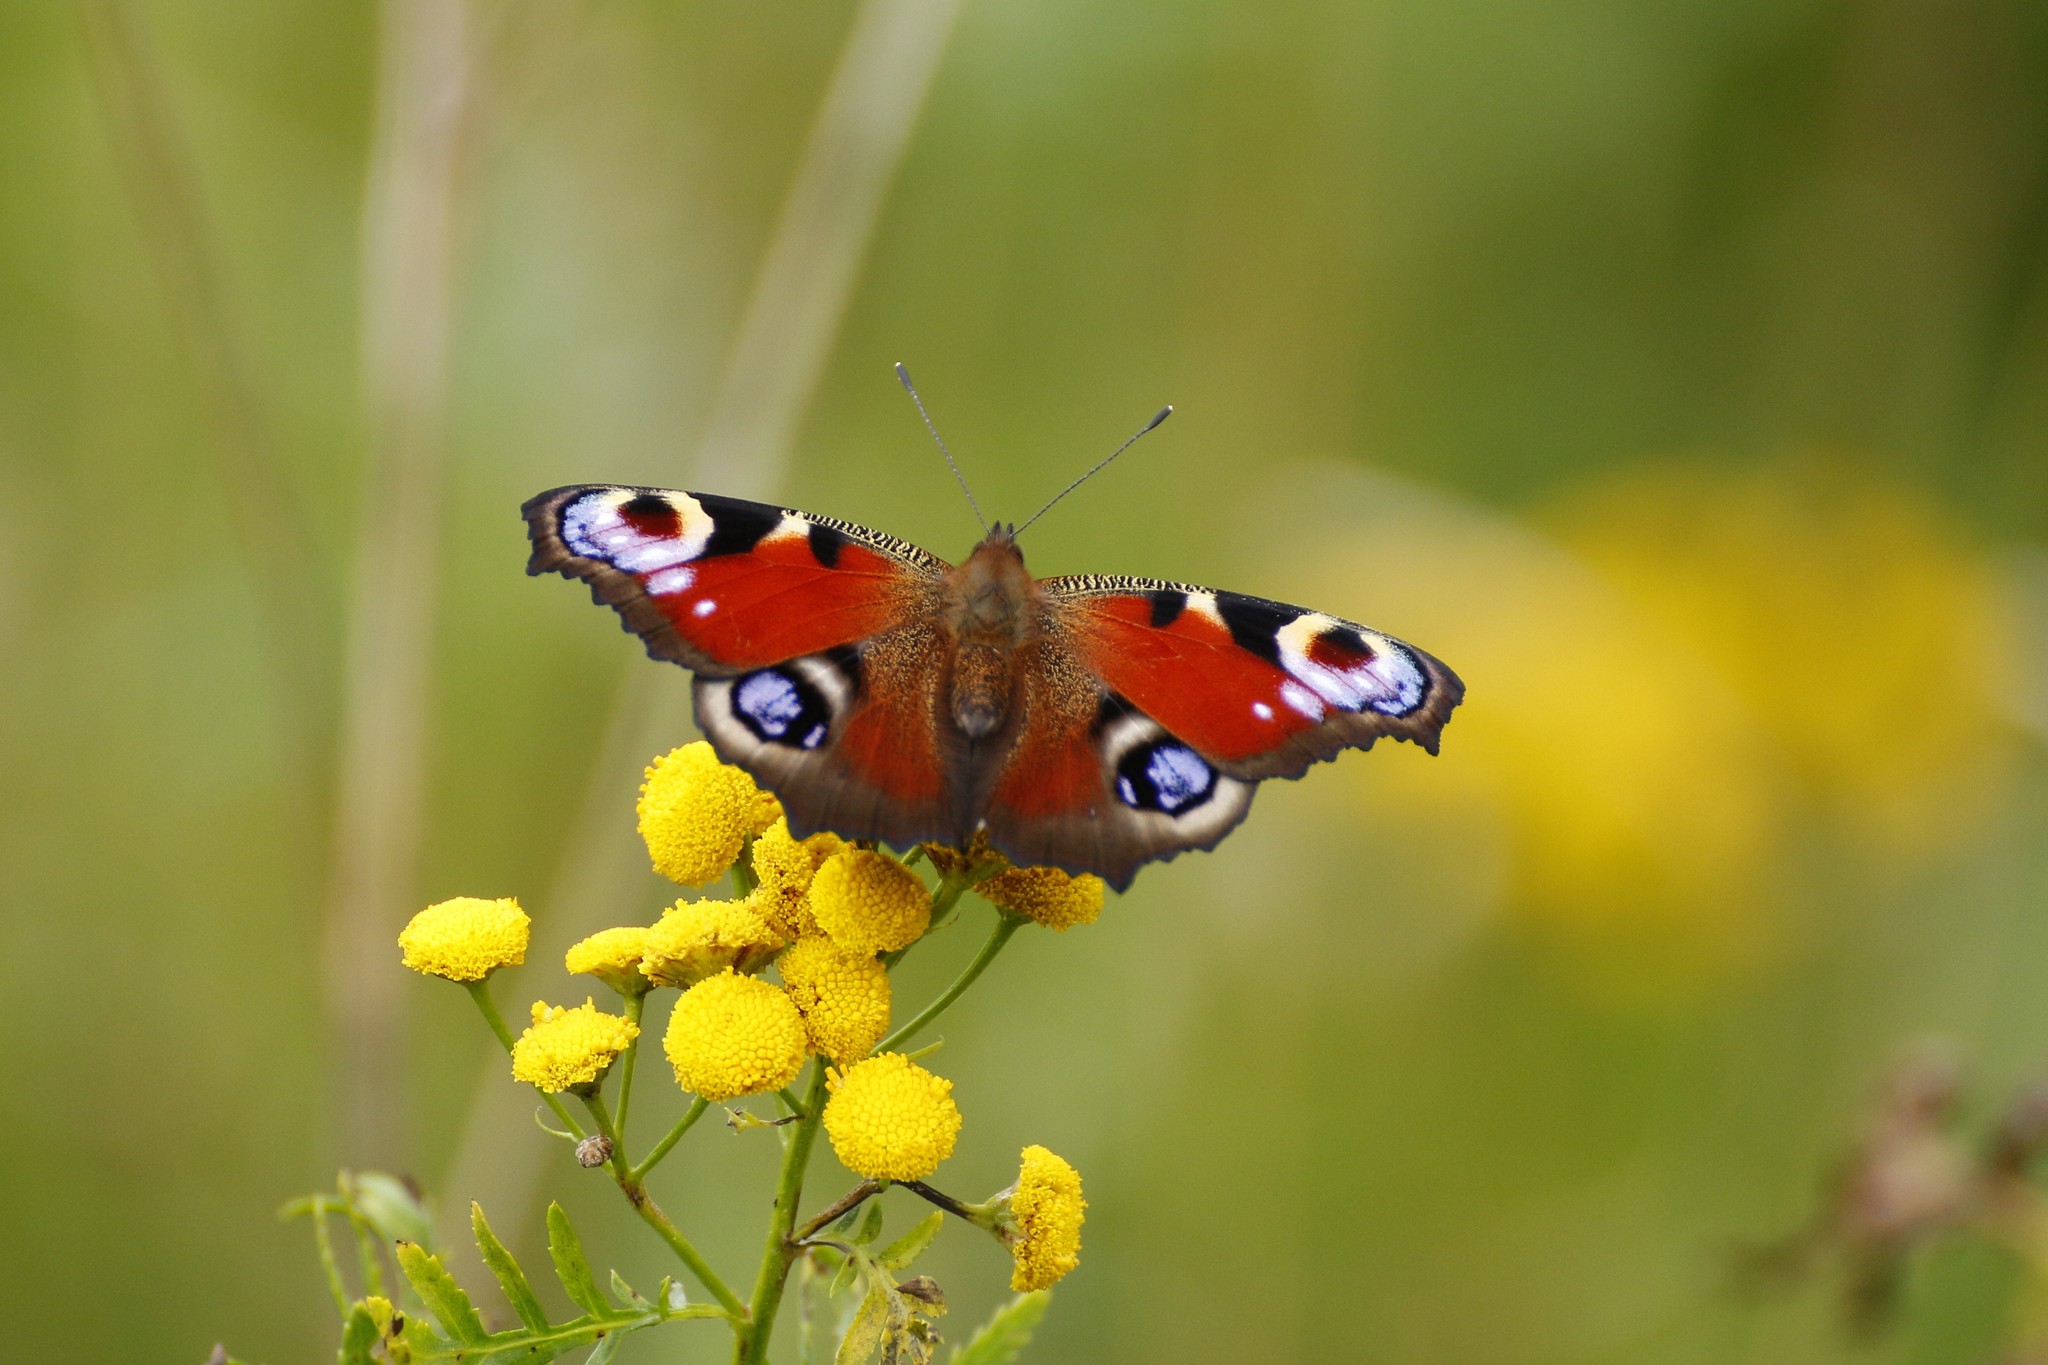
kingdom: Animalia
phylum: Arthropoda
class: Insecta
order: Lepidoptera
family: Nymphalidae
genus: Aglais
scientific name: Aglais io
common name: Peacock
